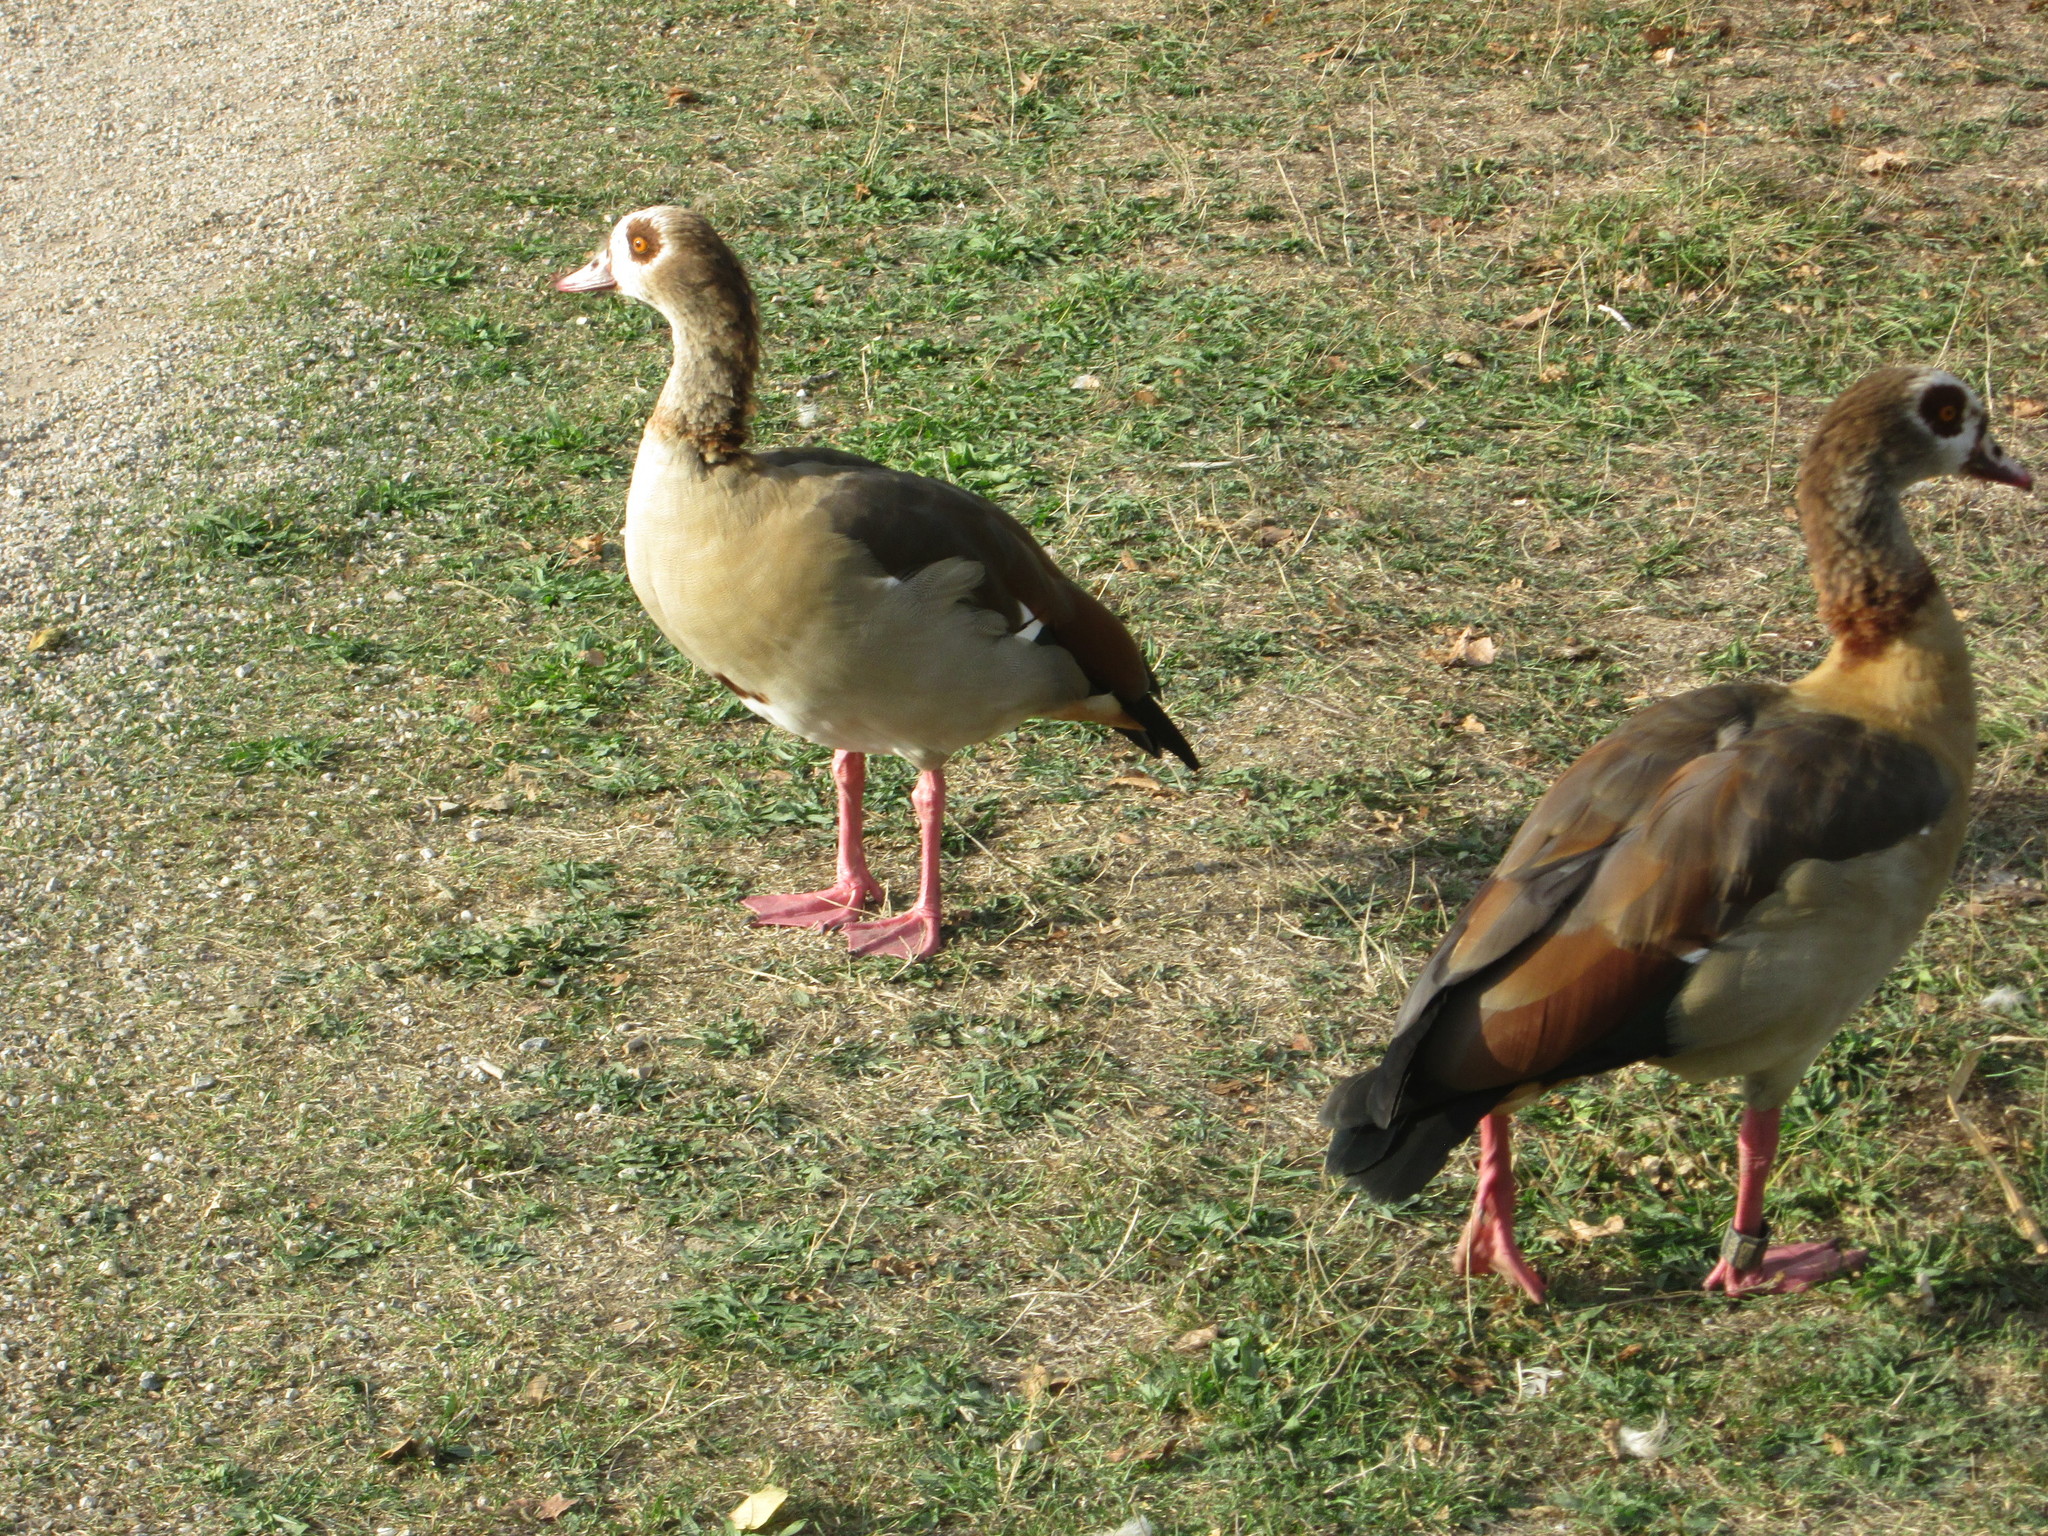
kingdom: Animalia
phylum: Chordata
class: Aves
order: Anseriformes
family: Anatidae
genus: Alopochen
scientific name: Alopochen aegyptiaca
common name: Egyptian goose
